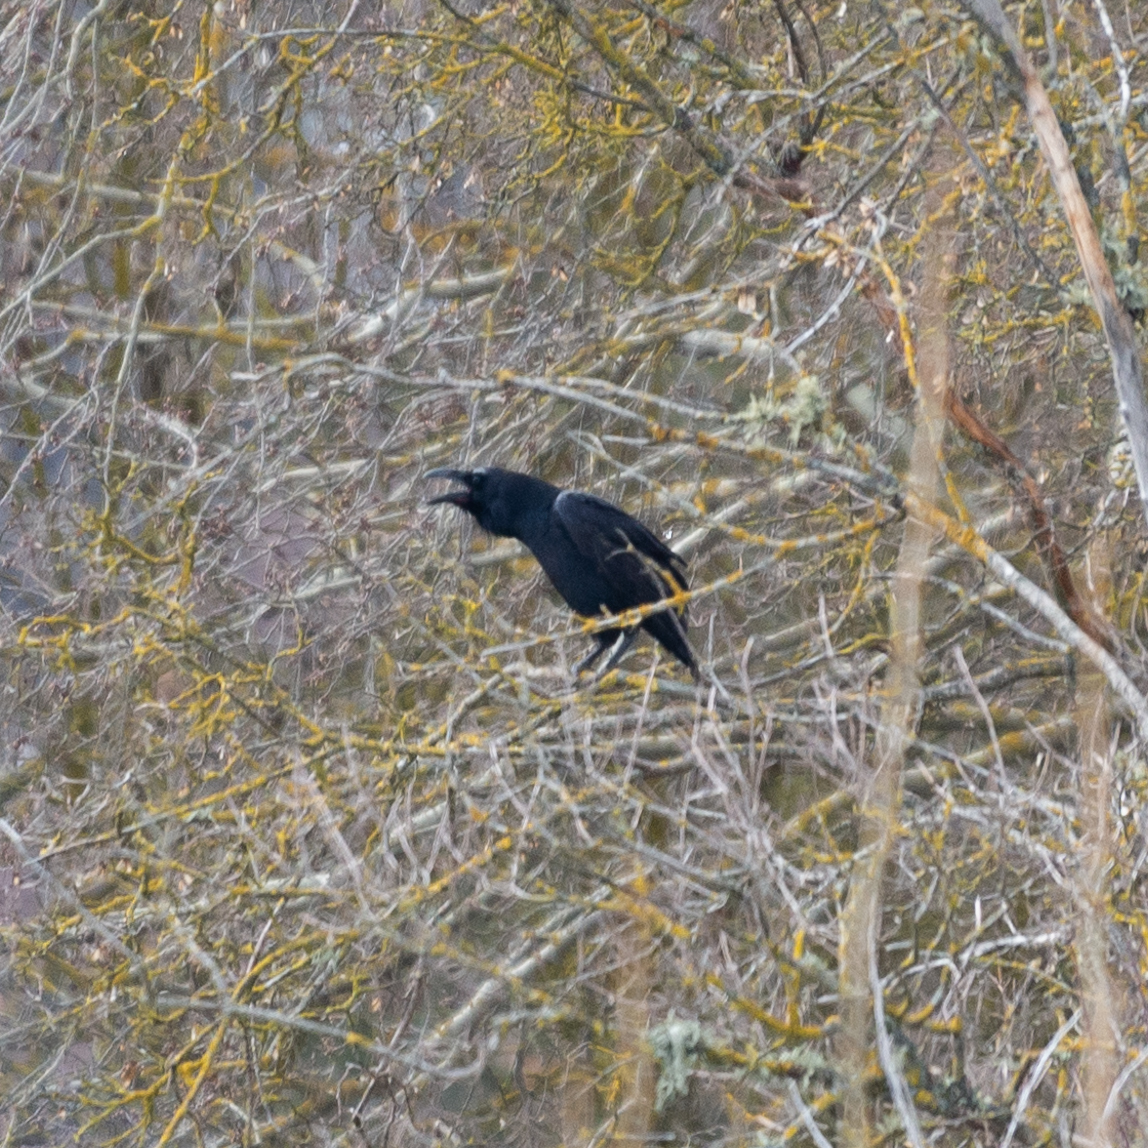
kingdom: Animalia
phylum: Chordata
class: Aves
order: Passeriformes
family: Corvidae
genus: Corvus
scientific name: Corvus corax
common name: Common raven
